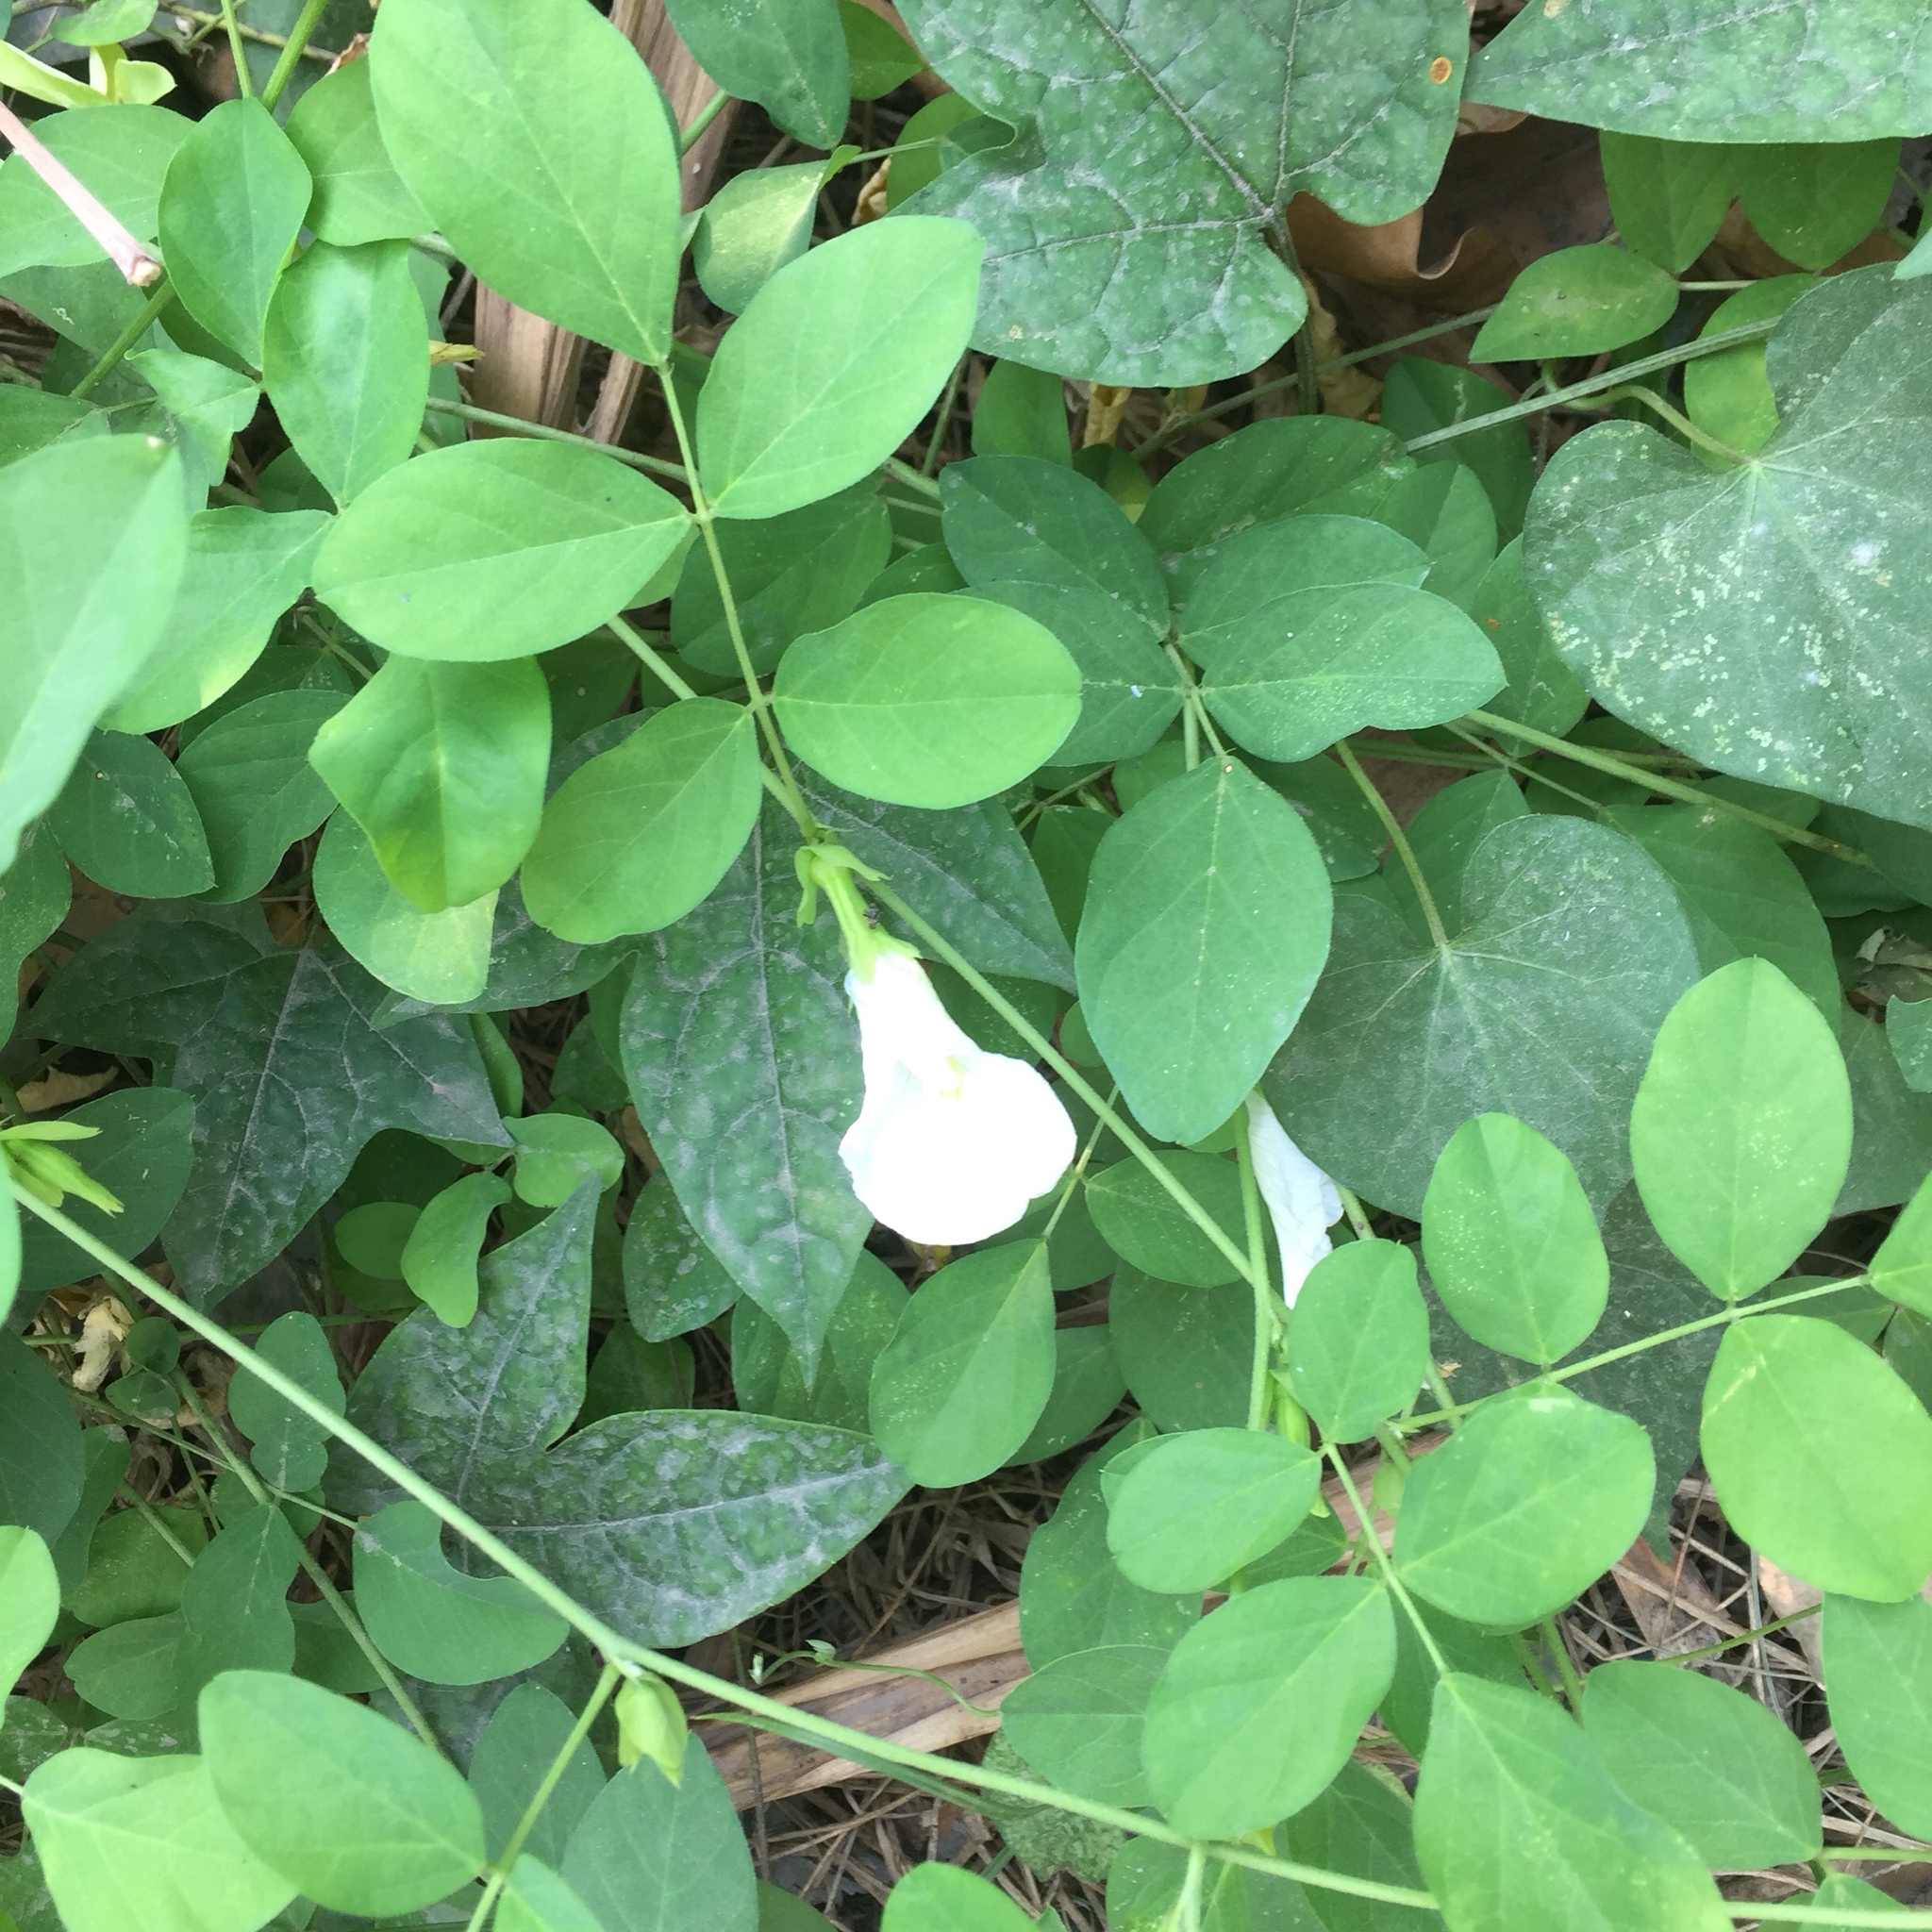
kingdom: Plantae
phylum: Tracheophyta
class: Magnoliopsida
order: Fabales
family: Fabaceae
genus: Clitoria
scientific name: Clitoria ternatea
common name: Asian pigeonwings
